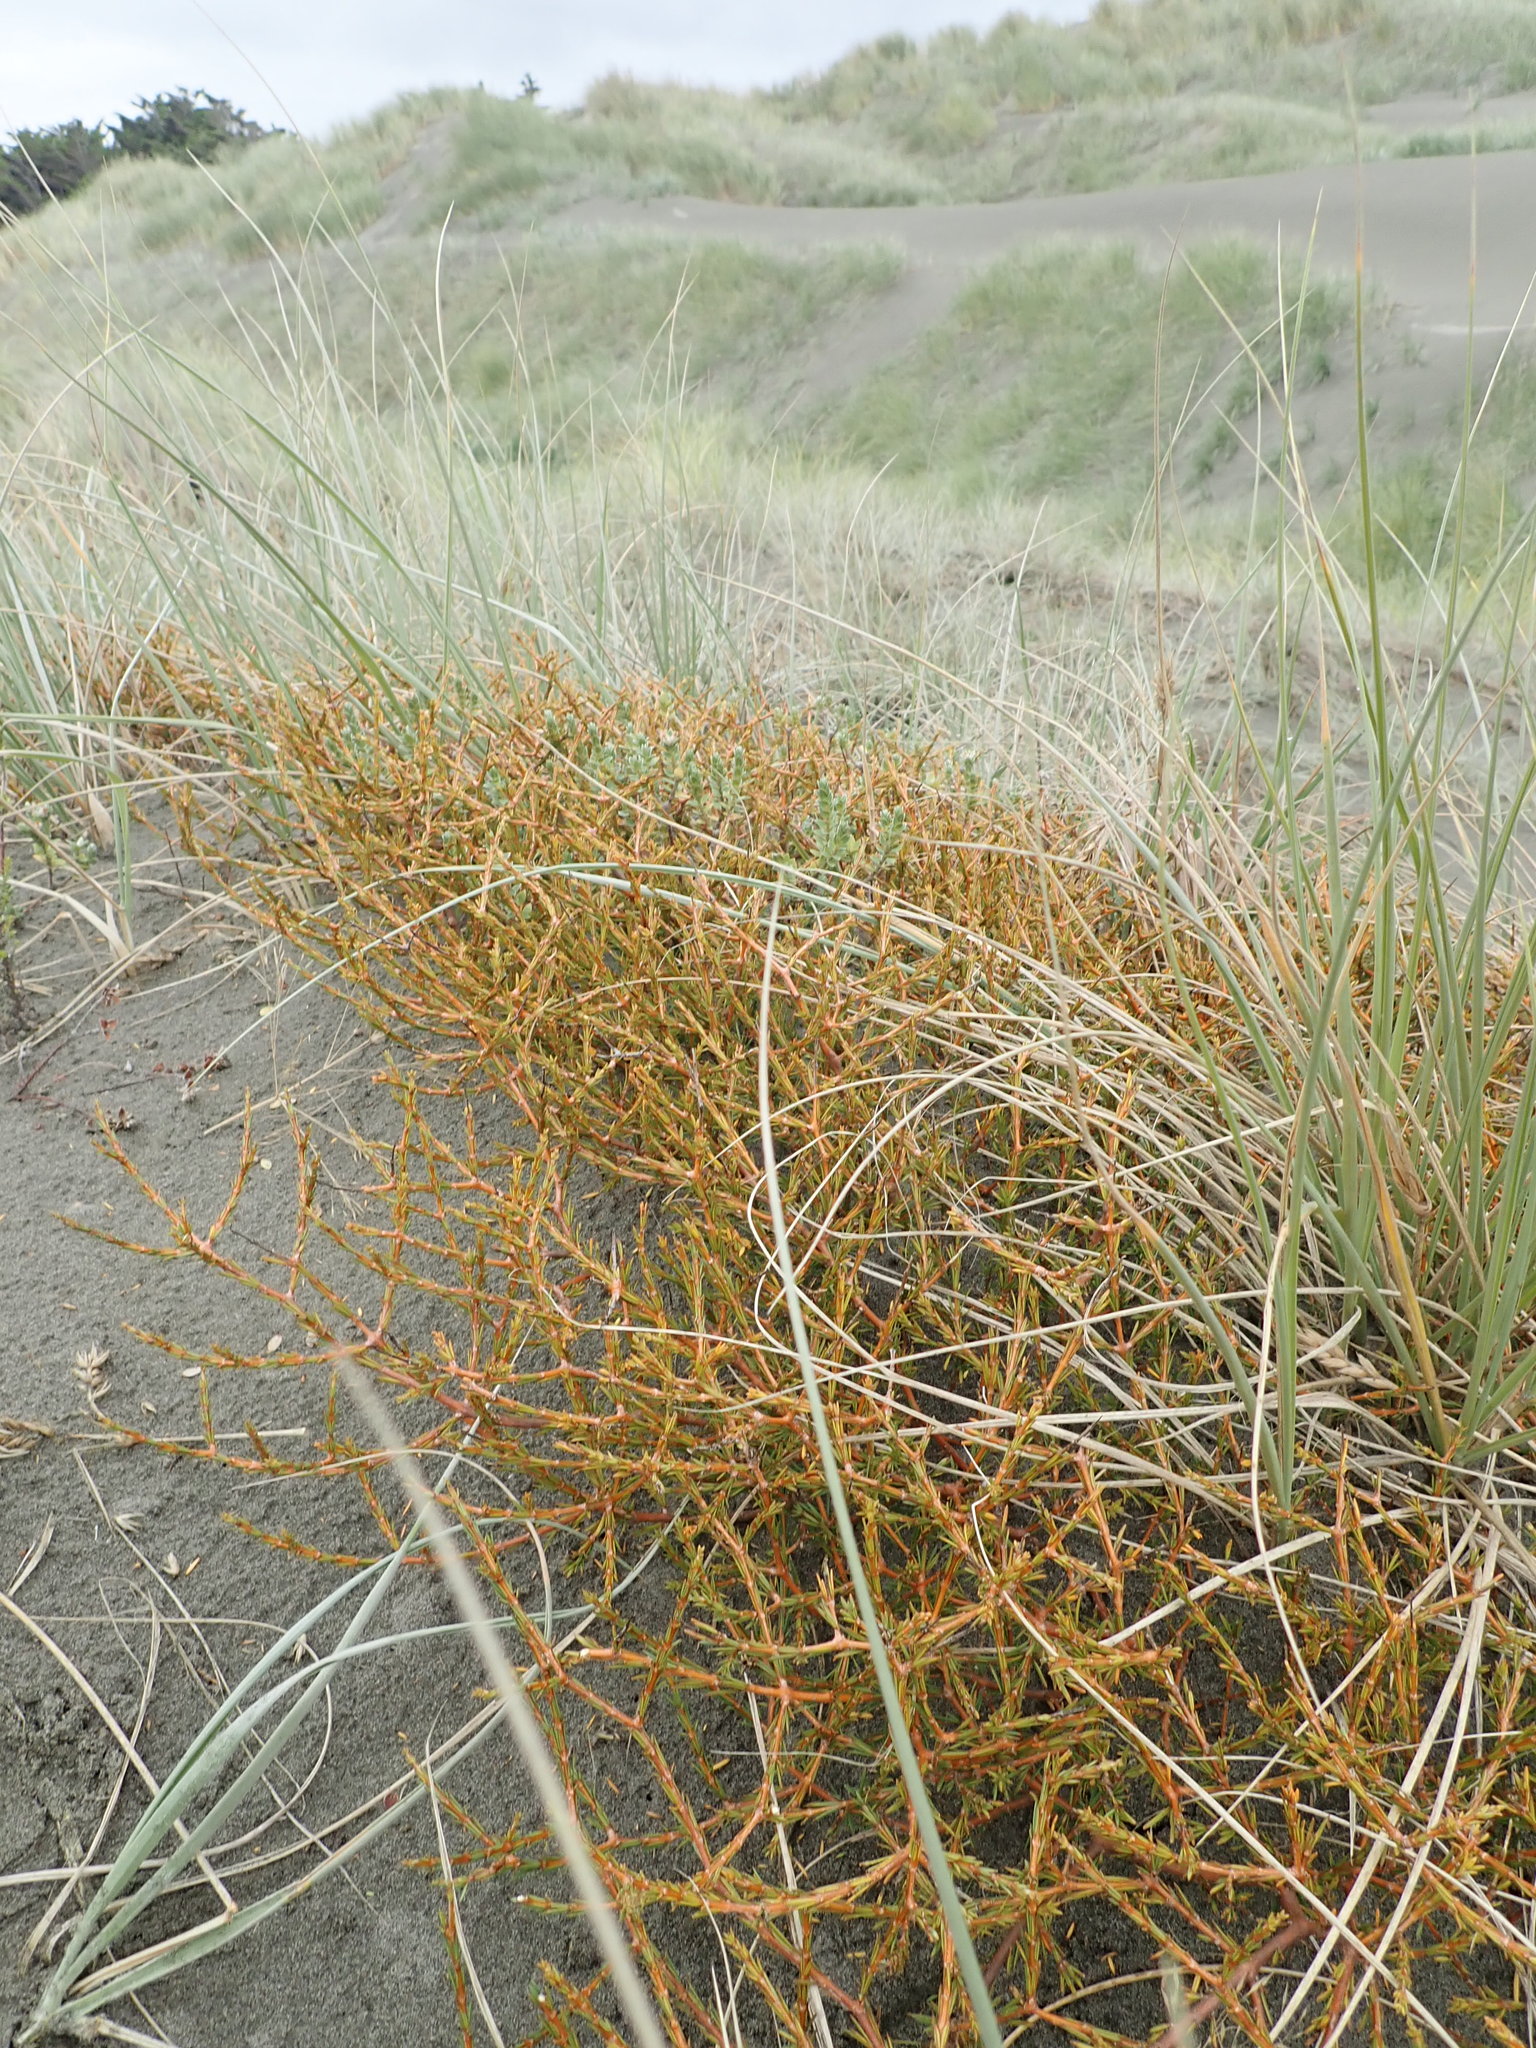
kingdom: Plantae
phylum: Tracheophyta
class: Magnoliopsida
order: Gentianales
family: Rubiaceae
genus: Coprosma
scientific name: Coprosma acerosa
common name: Sand coprosma
